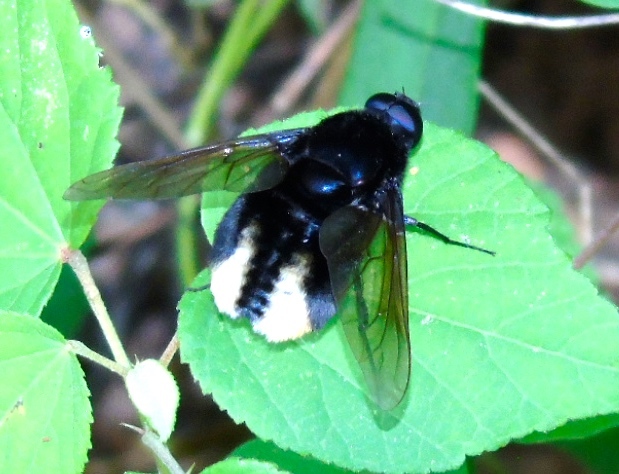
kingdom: Animalia
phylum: Arthropoda
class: Insecta
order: Diptera
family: Bombyliidae
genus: Bryodemina
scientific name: Bryodemina valida
